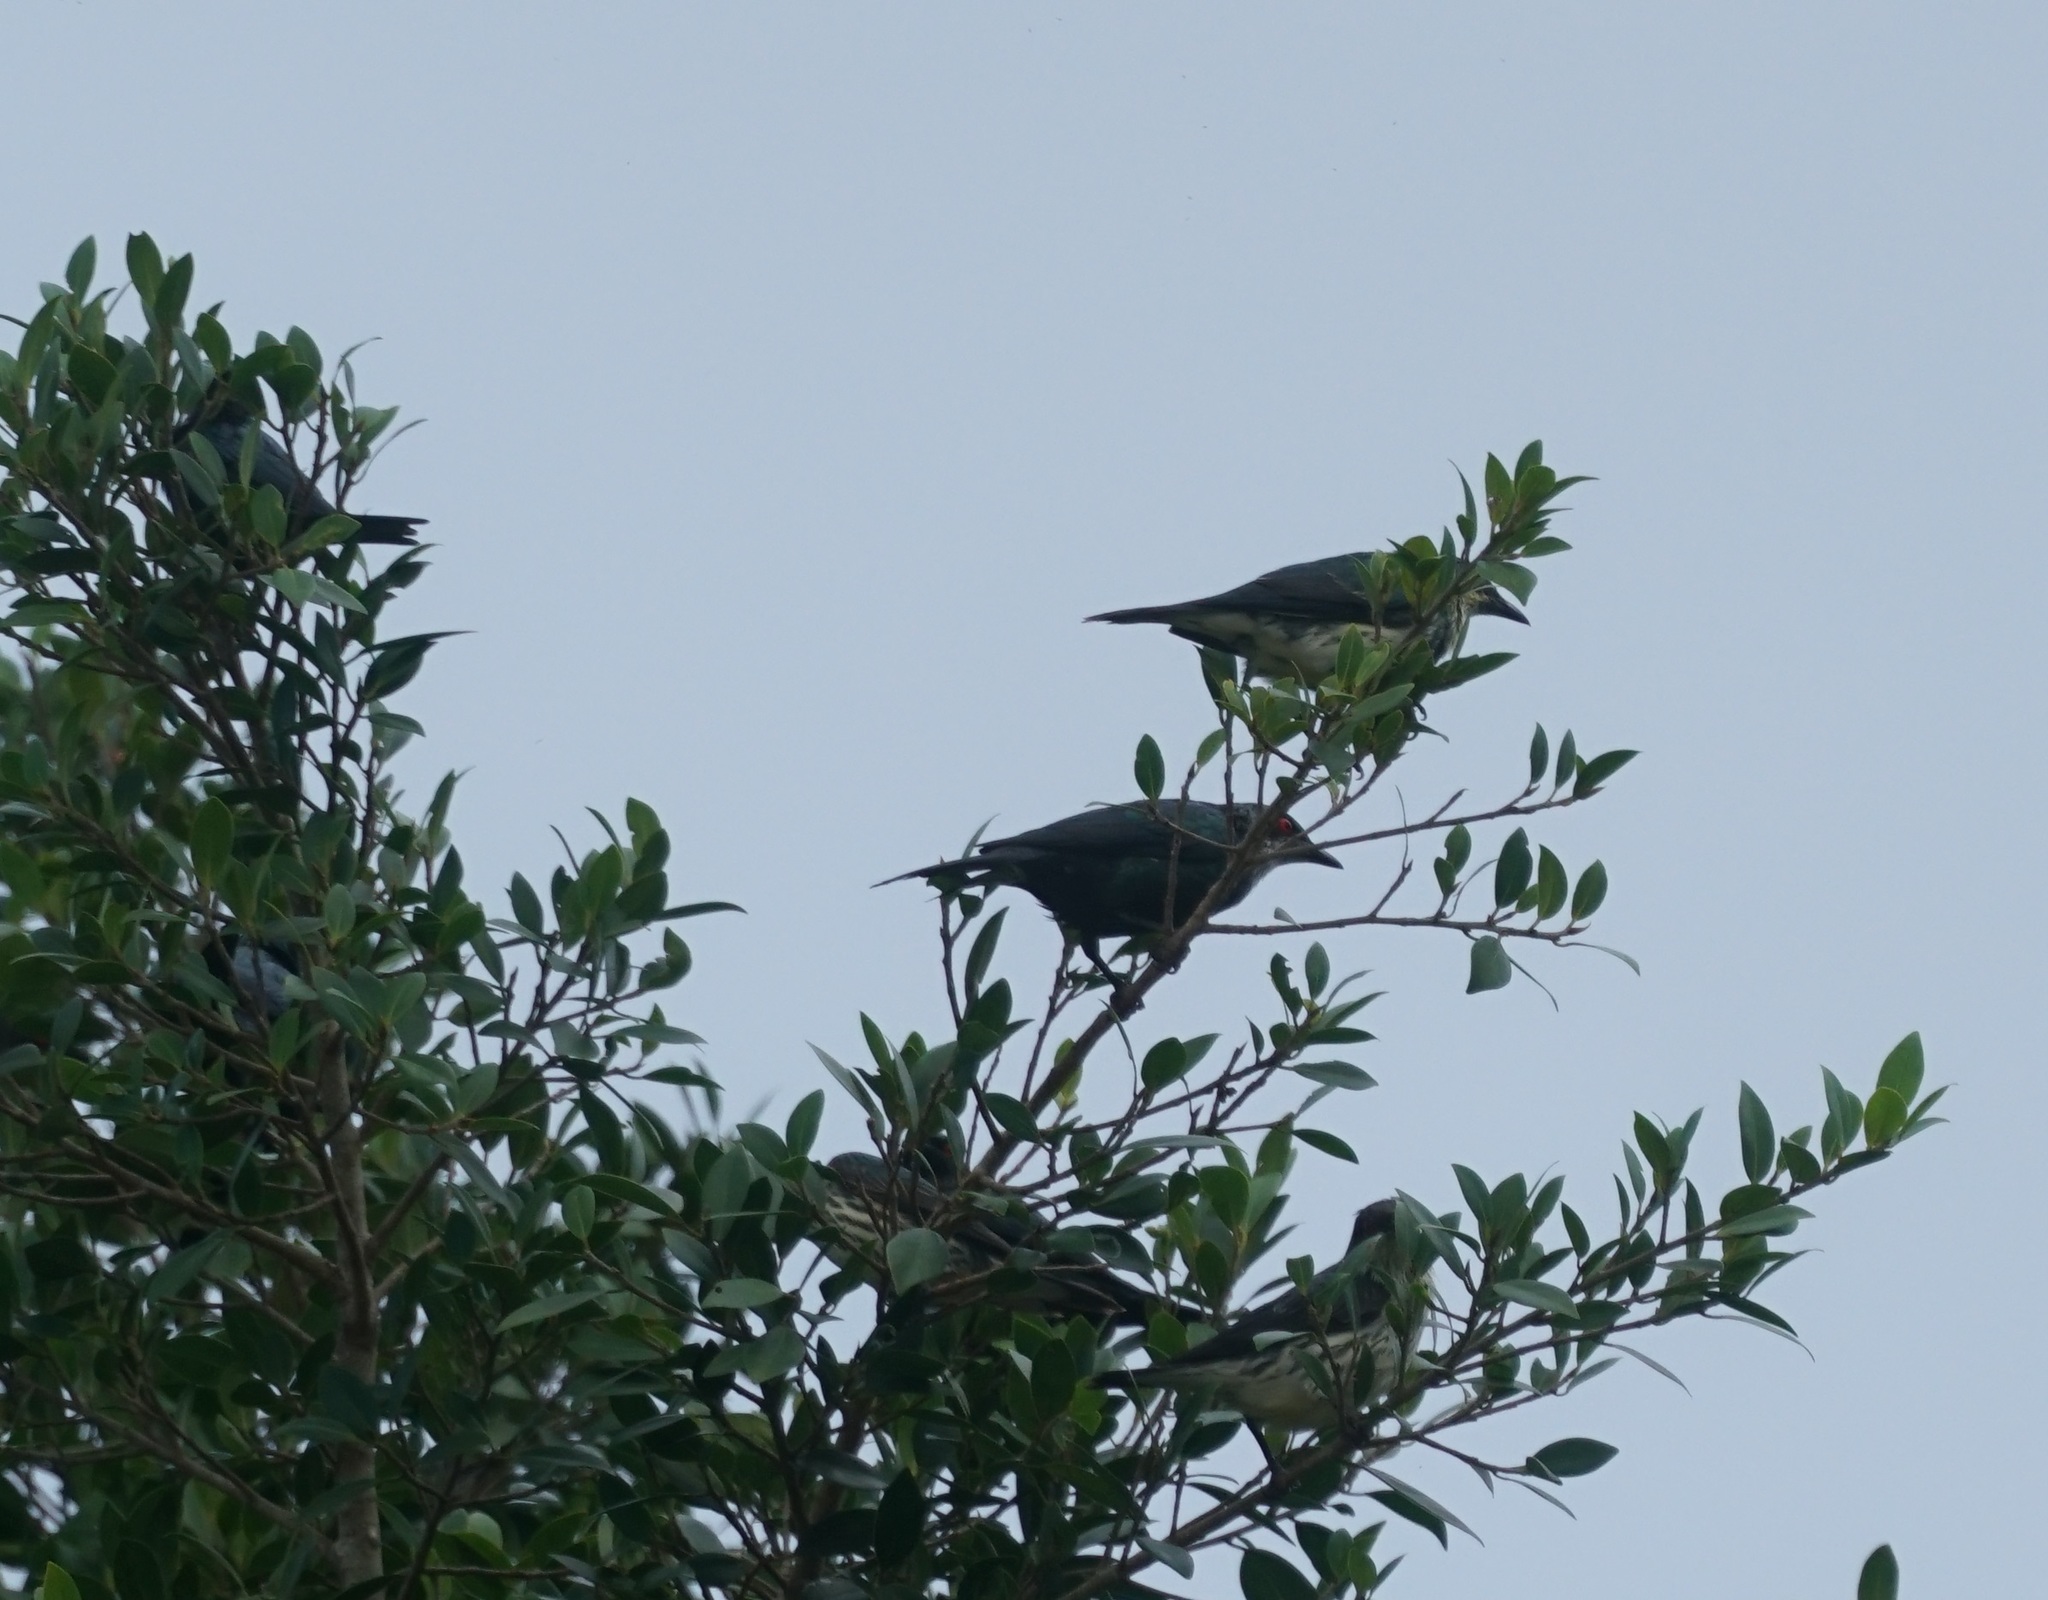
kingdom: Animalia
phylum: Chordata
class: Aves
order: Passeriformes
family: Sturnidae
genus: Aplonis
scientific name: Aplonis metallica
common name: Metallic starling
